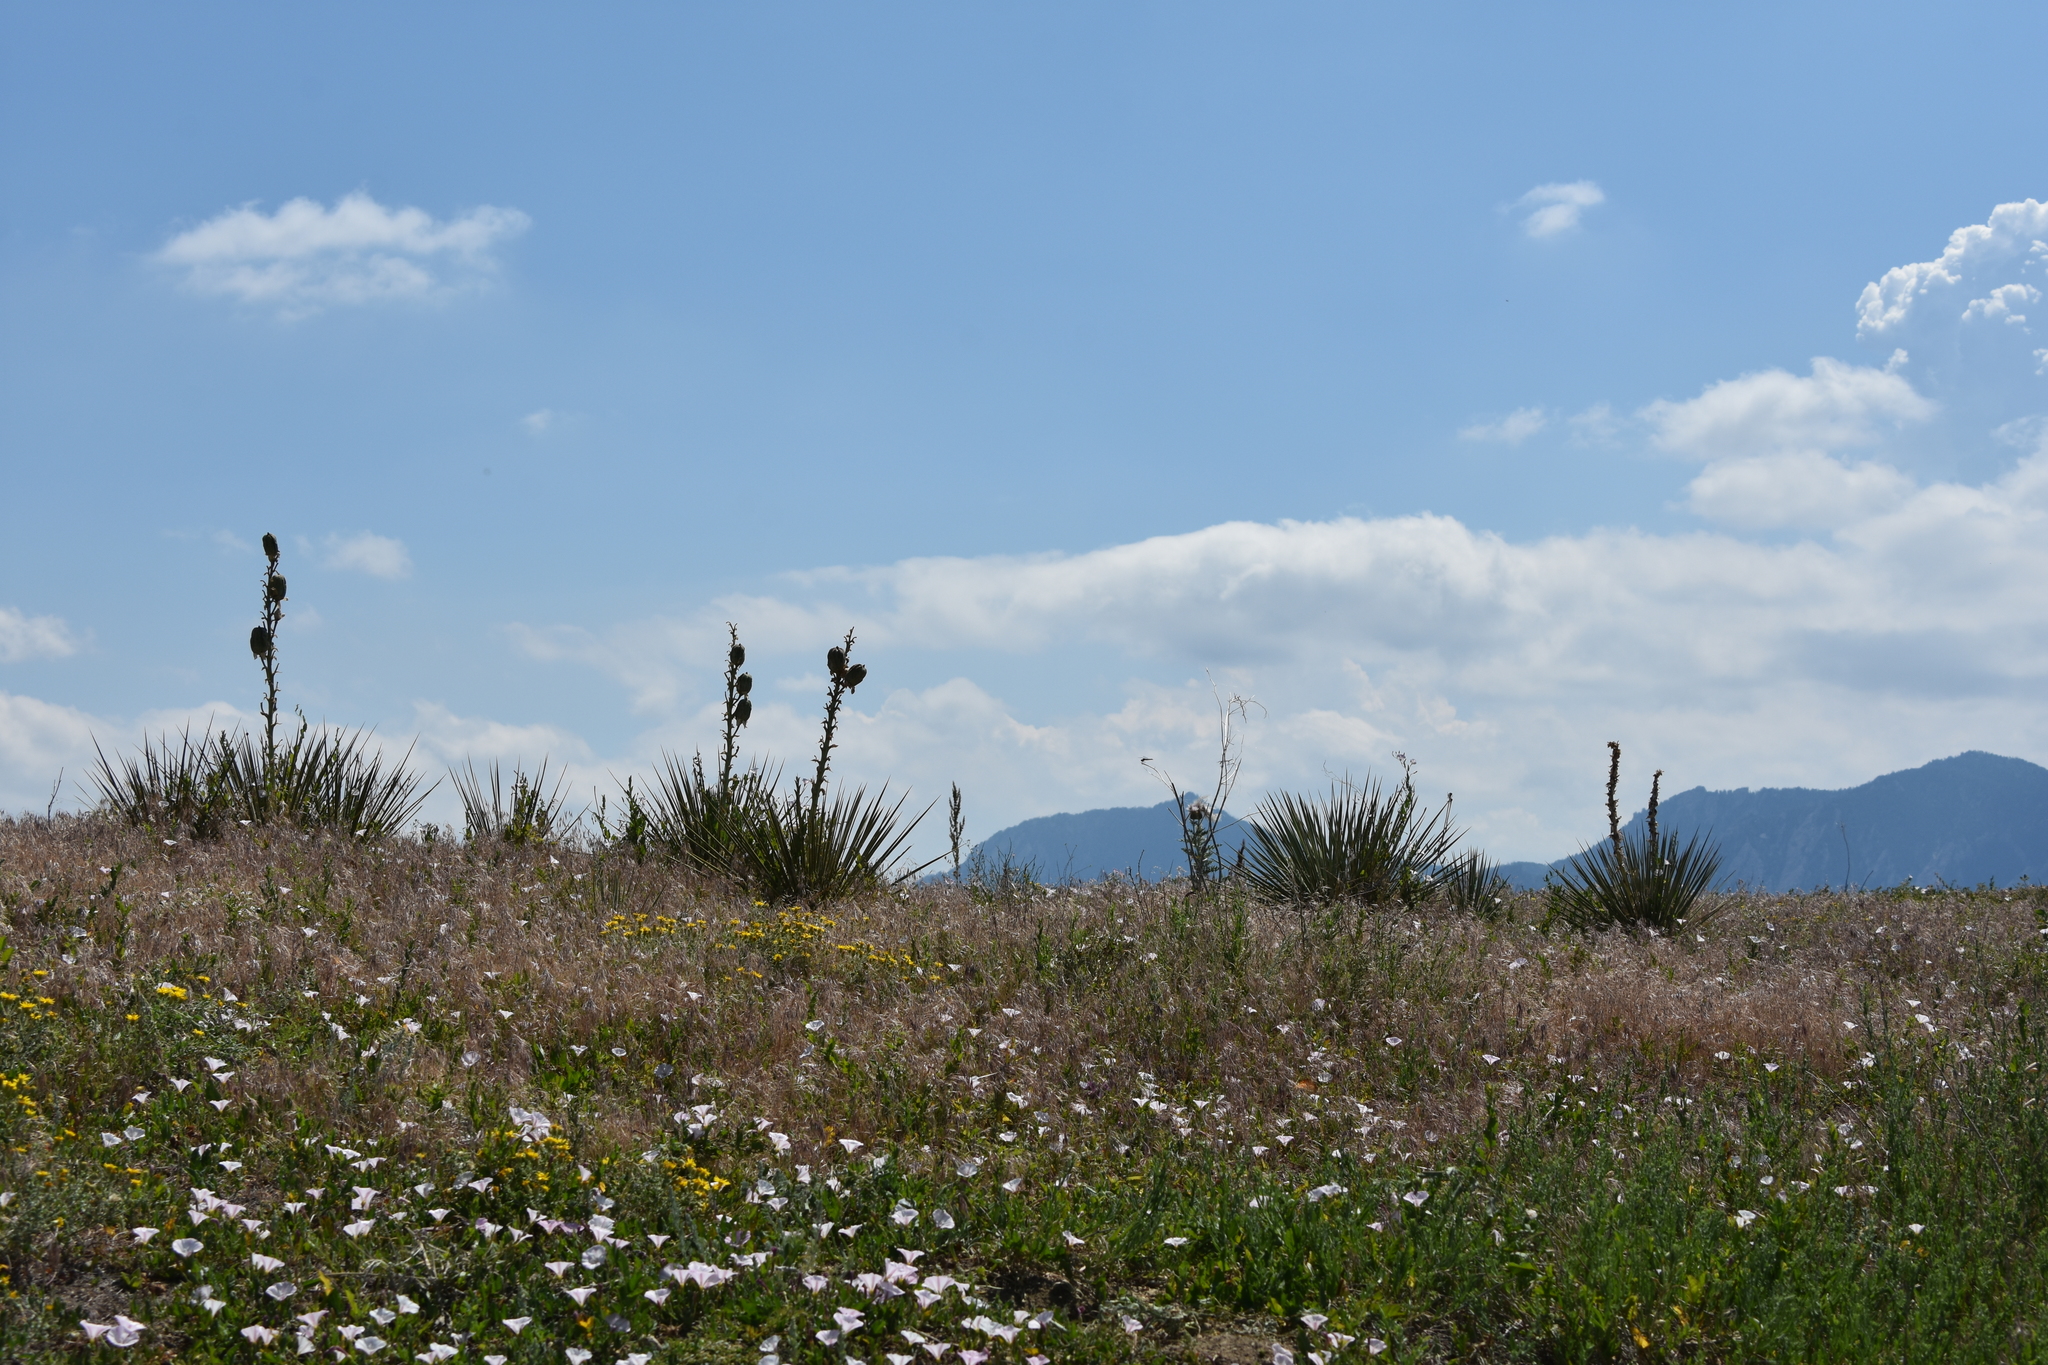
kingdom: Plantae
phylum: Tracheophyta
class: Liliopsida
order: Asparagales
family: Asparagaceae
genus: Yucca
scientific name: Yucca glauca
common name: Great plains yucca
